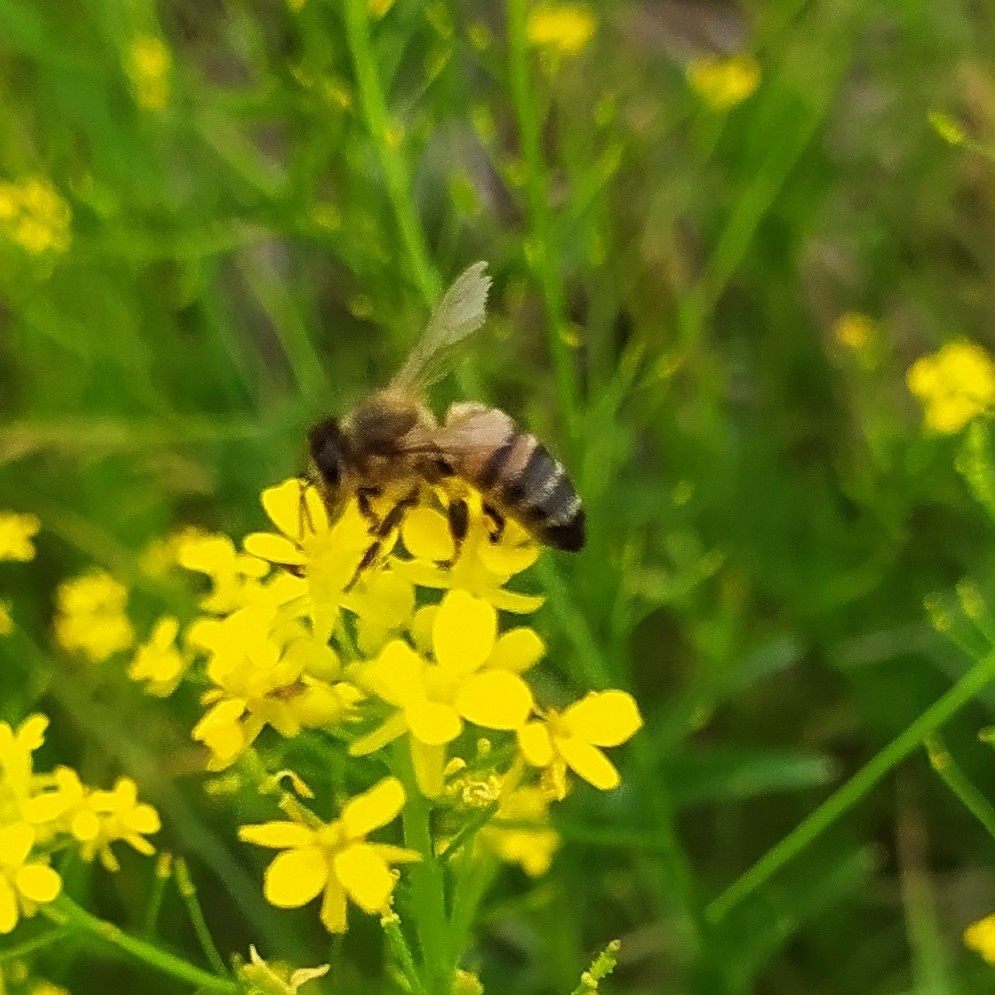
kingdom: Animalia
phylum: Arthropoda
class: Insecta
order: Hymenoptera
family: Apidae
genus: Apis
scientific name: Apis mellifera
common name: Honey bee
